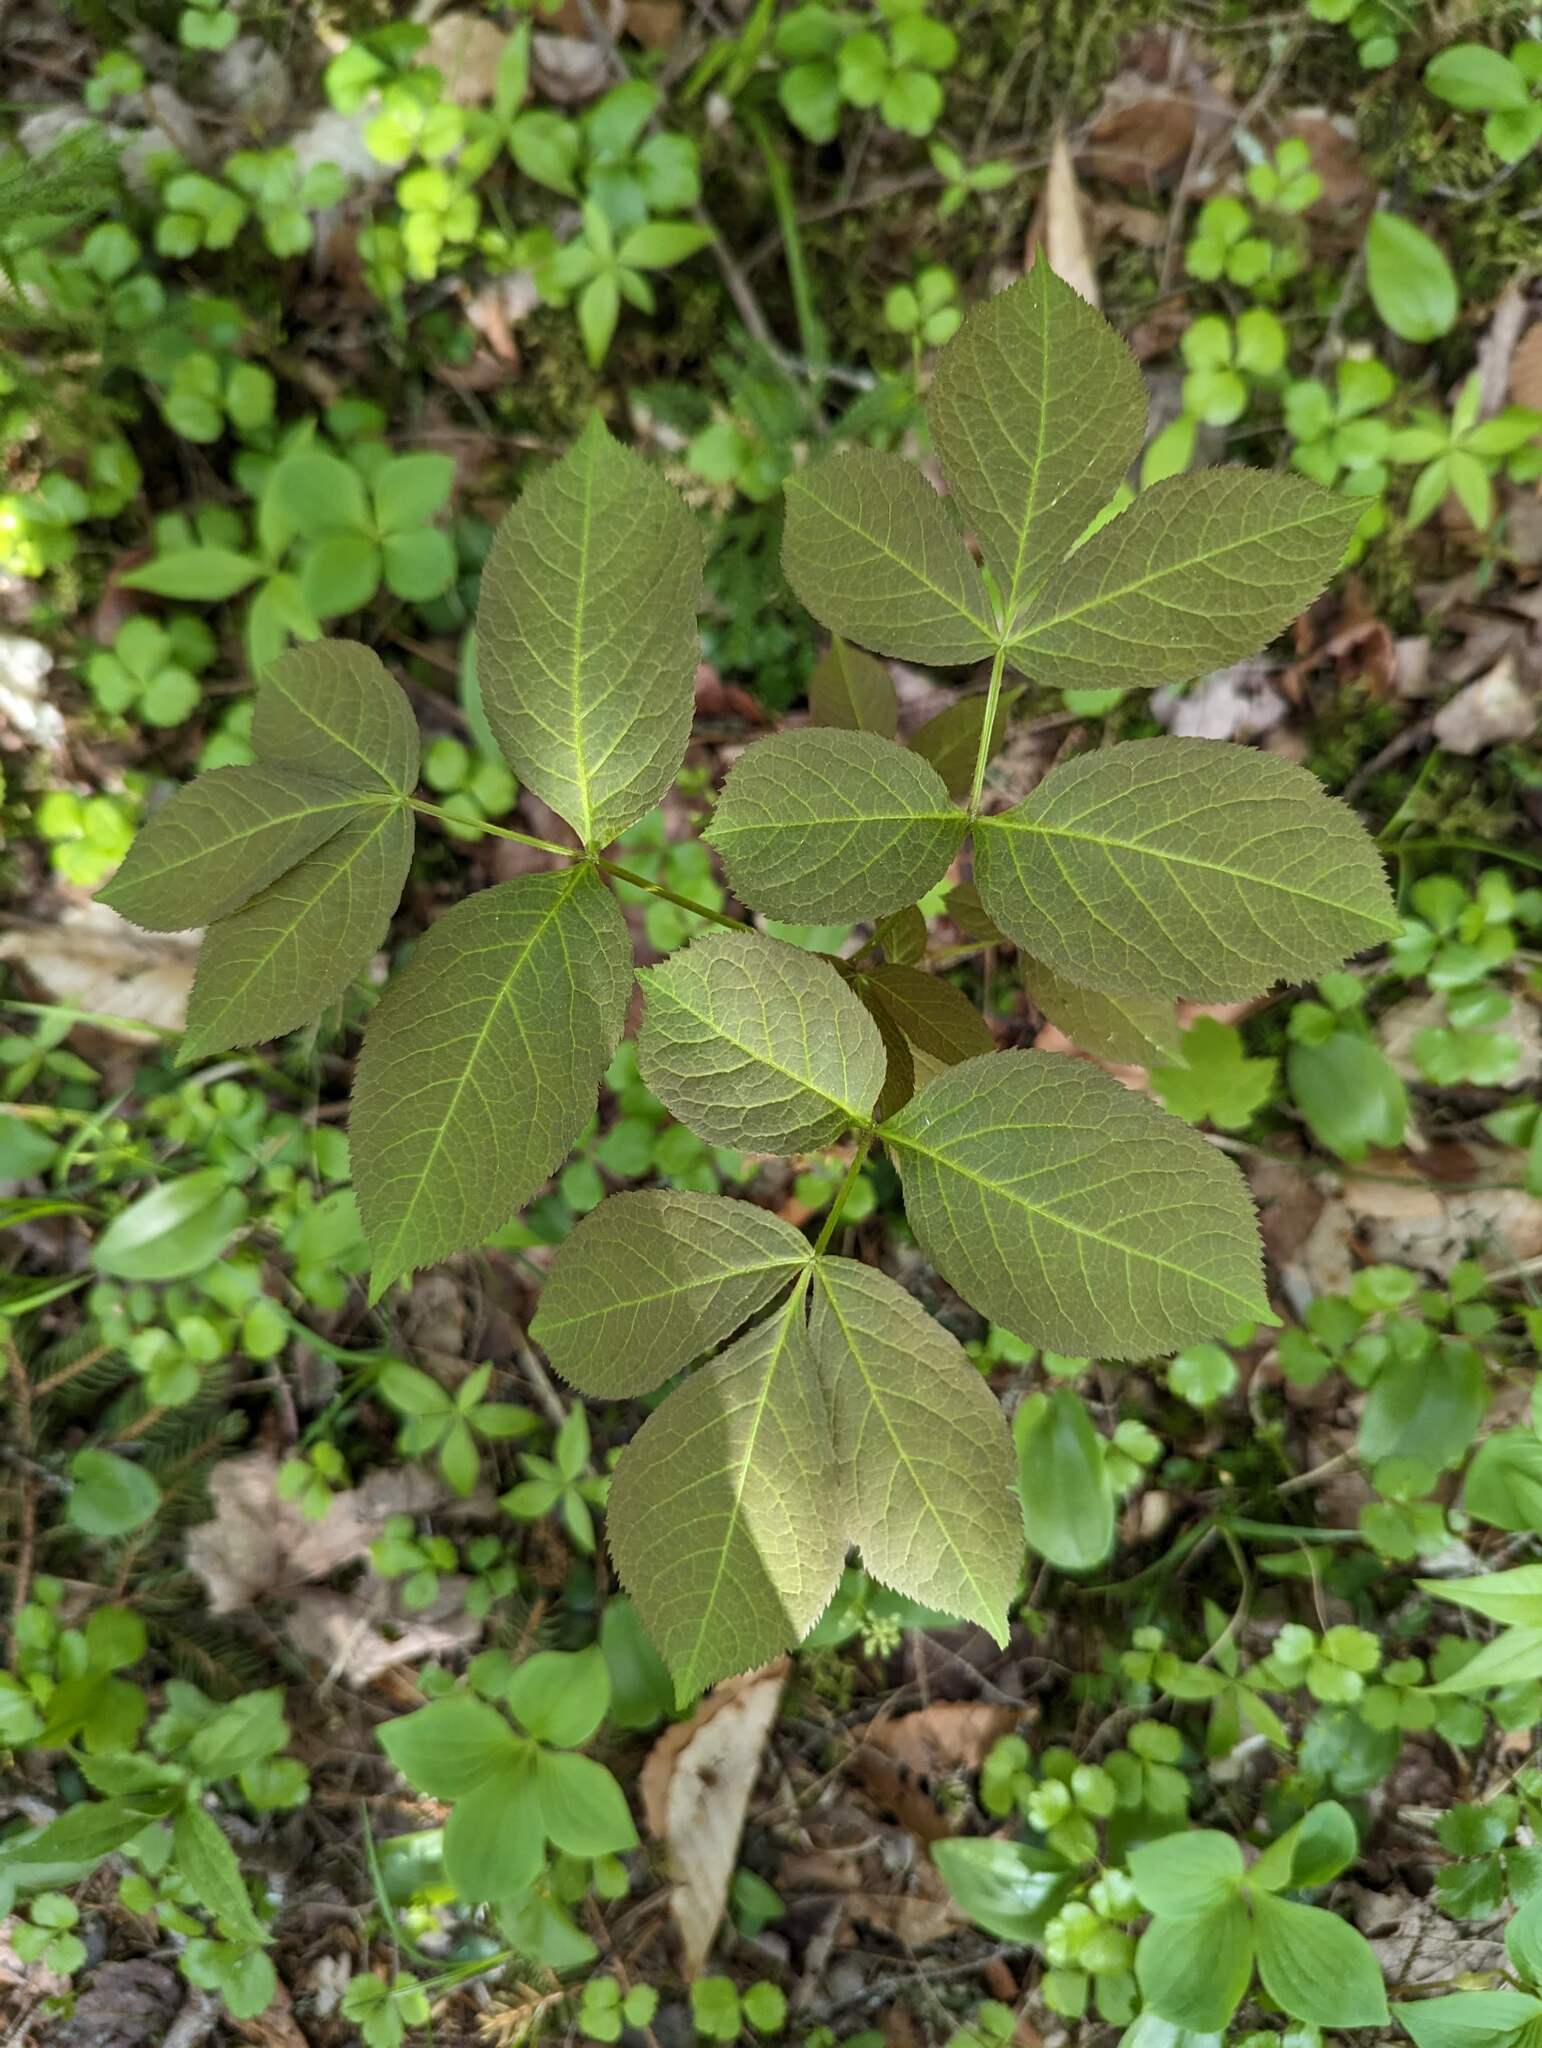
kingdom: Plantae
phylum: Tracheophyta
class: Magnoliopsida
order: Apiales
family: Araliaceae
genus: Aralia
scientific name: Aralia nudicaulis
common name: Wild sarsaparilla
